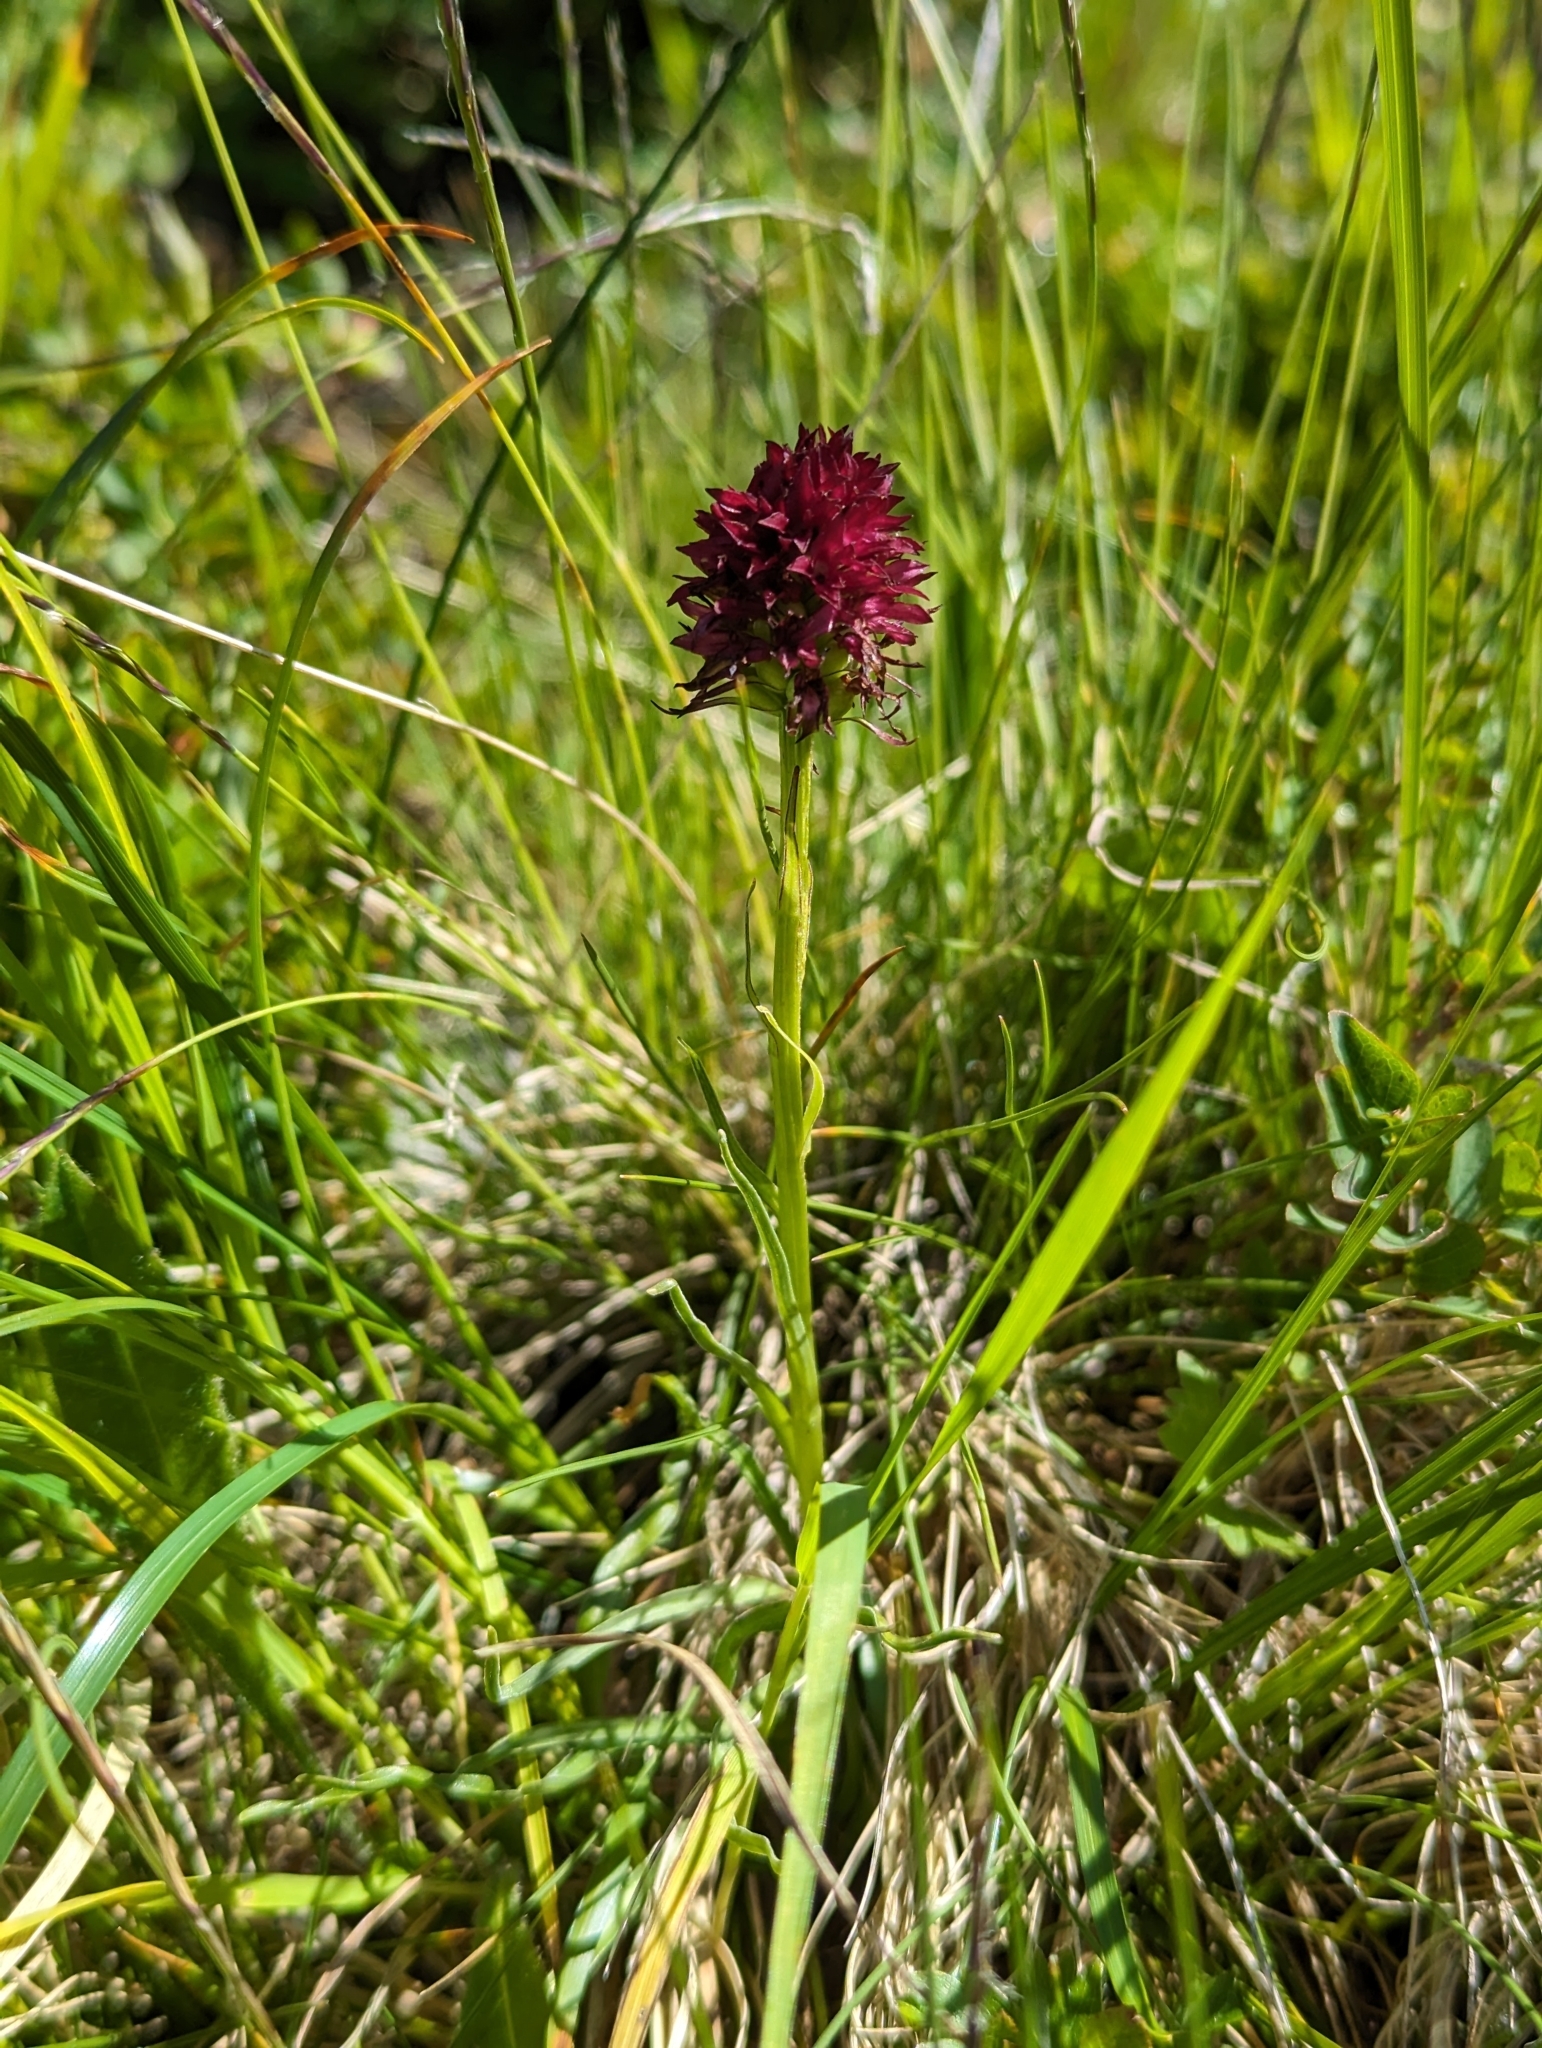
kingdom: Plantae
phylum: Tracheophyta
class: Liliopsida
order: Asparagales
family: Orchidaceae
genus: Gymnadenia
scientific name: Gymnadenia rhellicani
